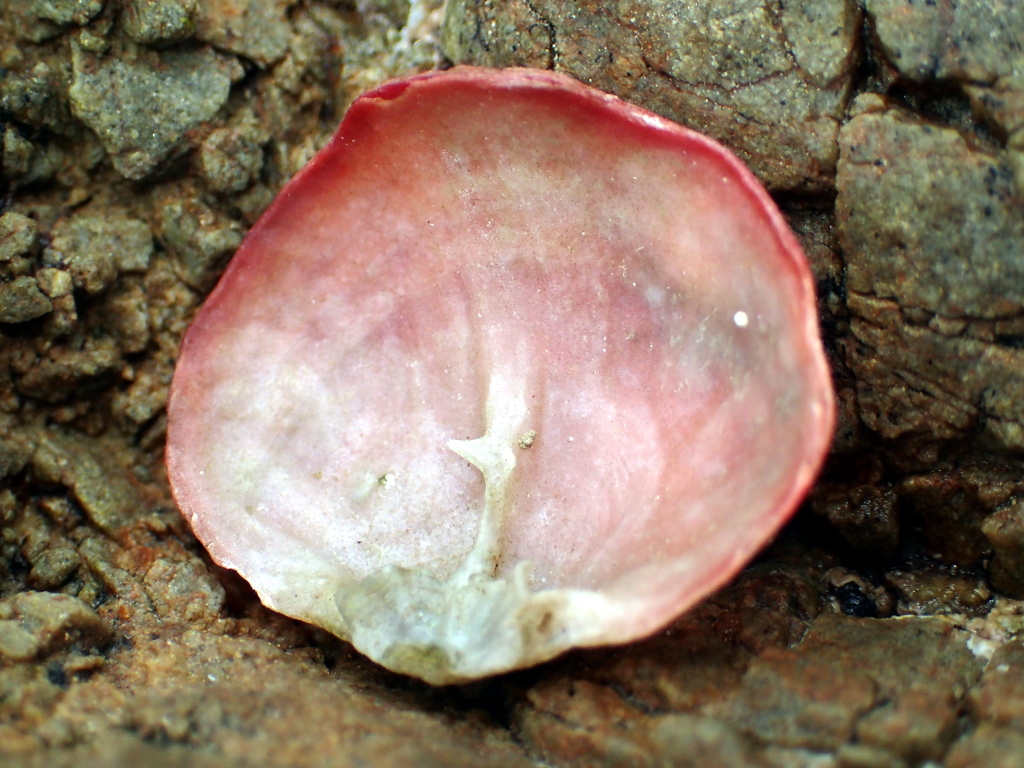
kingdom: Animalia
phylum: Brachiopoda
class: Rhynchonellata
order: Terebratulida
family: Terebratellidae
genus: Calloria
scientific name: Calloria inconspicua
